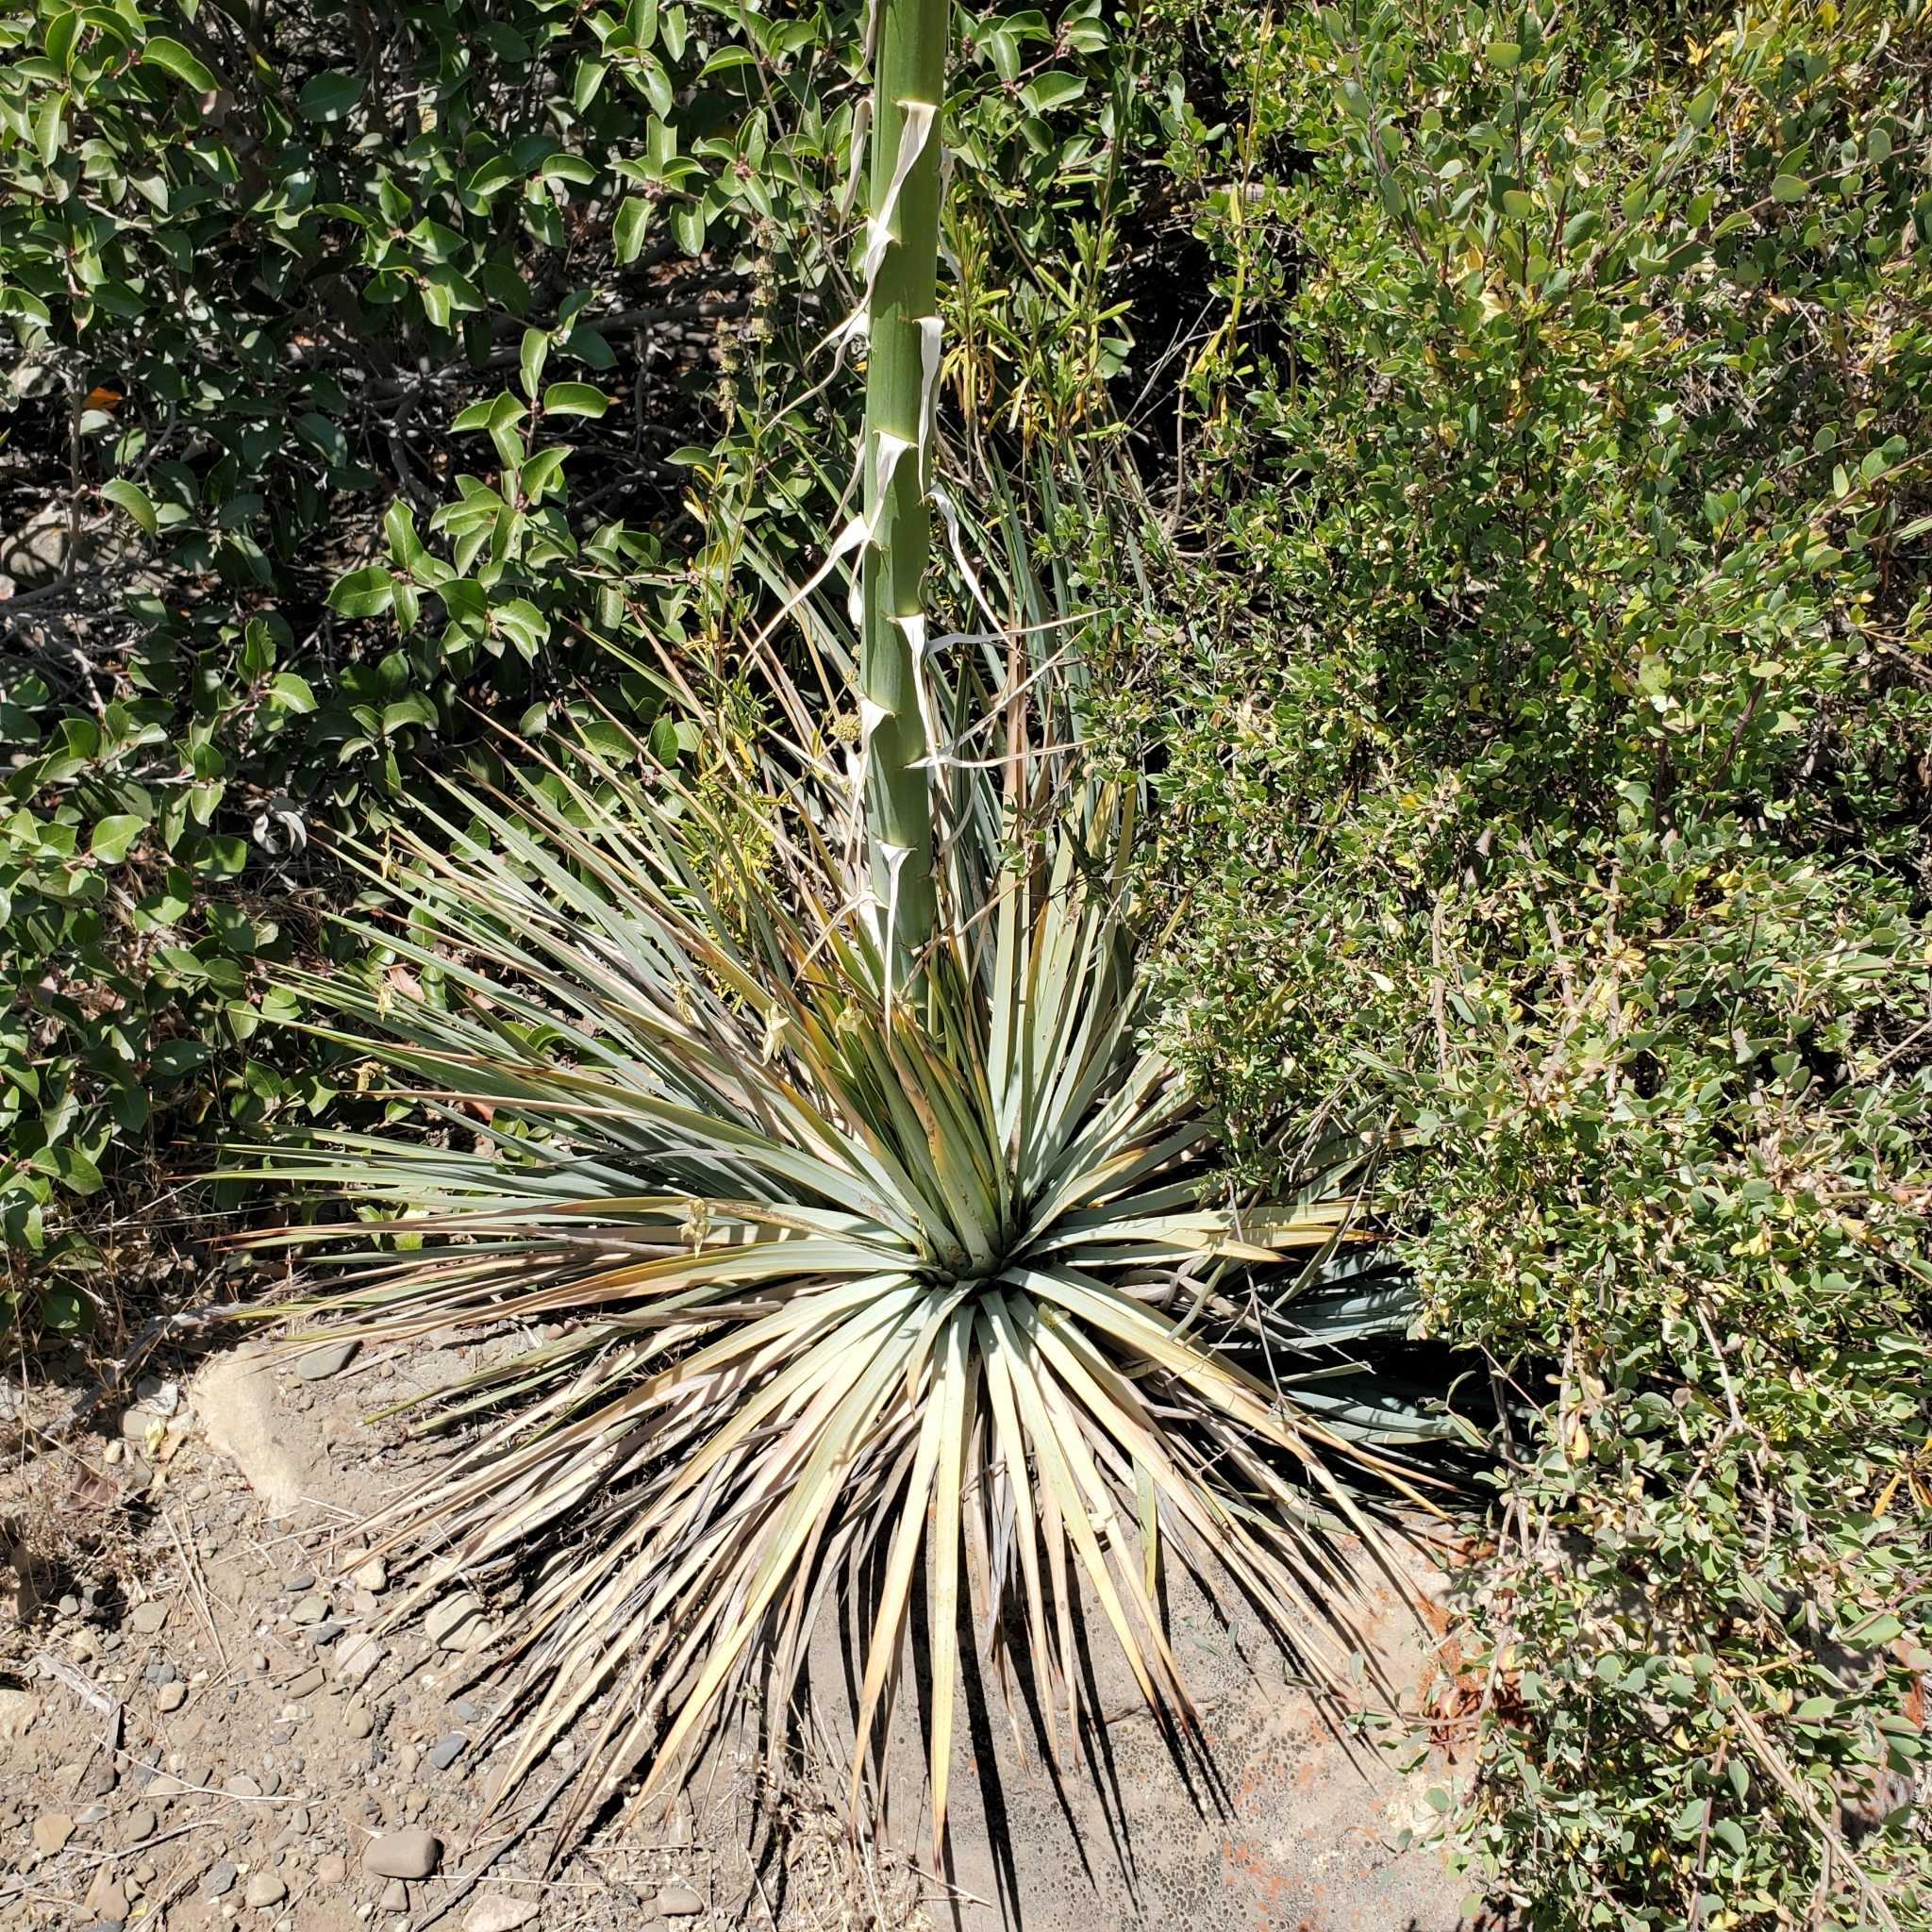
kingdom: Plantae
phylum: Tracheophyta
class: Liliopsida
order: Asparagales
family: Asparagaceae
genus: Hesperoyucca
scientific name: Hesperoyucca whipplei
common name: Our lord's-candle
